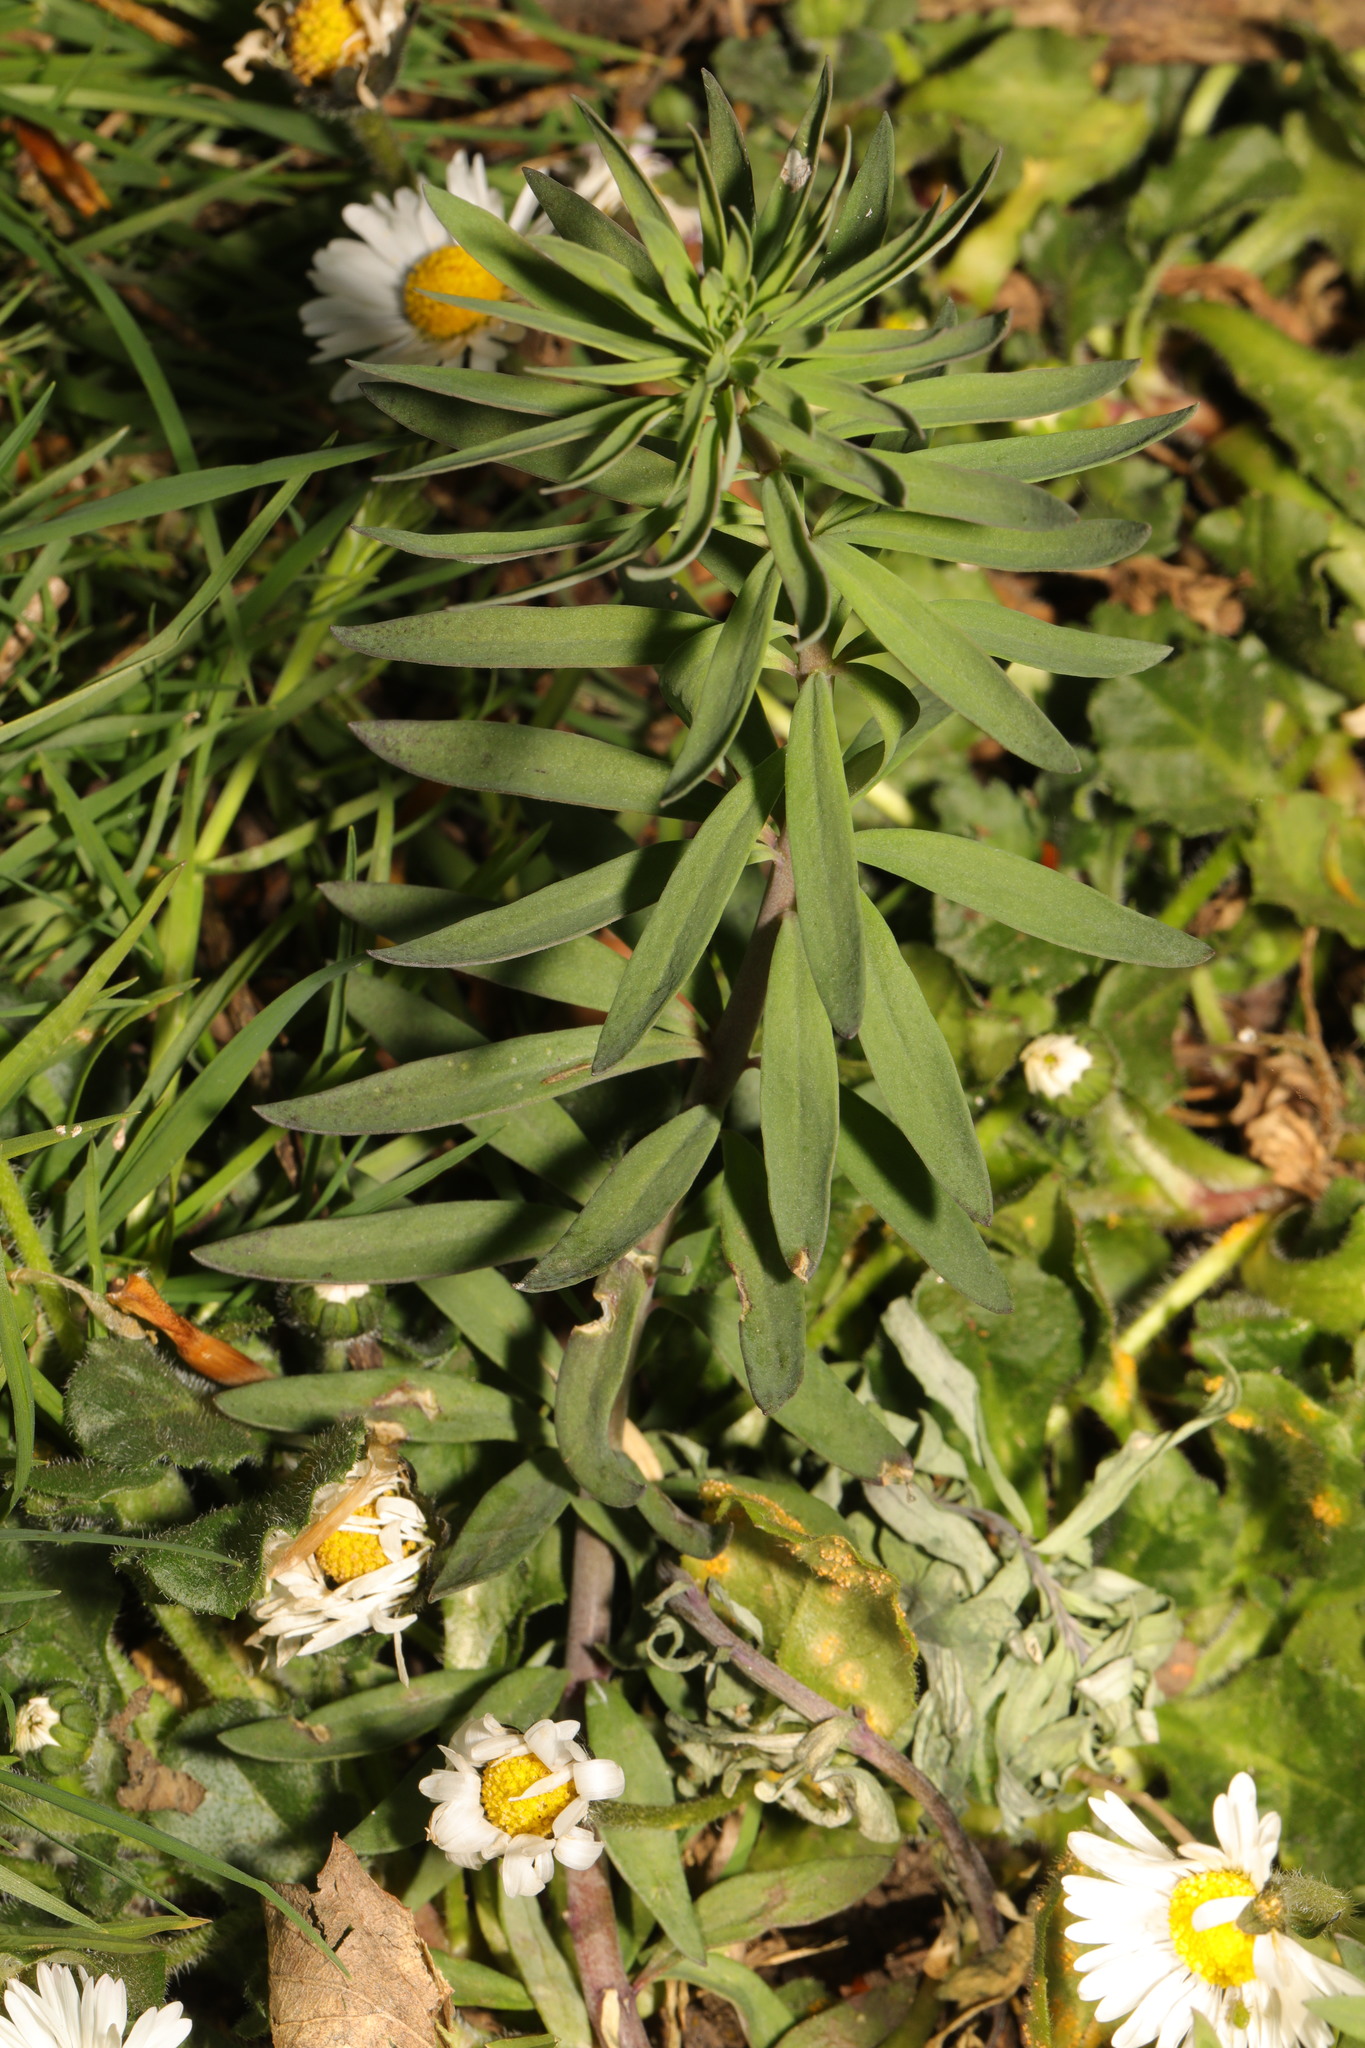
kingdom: Plantae
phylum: Tracheophyta
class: Magnoliopsida
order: Lamiales
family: Plantaginaceae
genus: Linaria
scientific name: Linaria purpurea
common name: Purple toadflax
